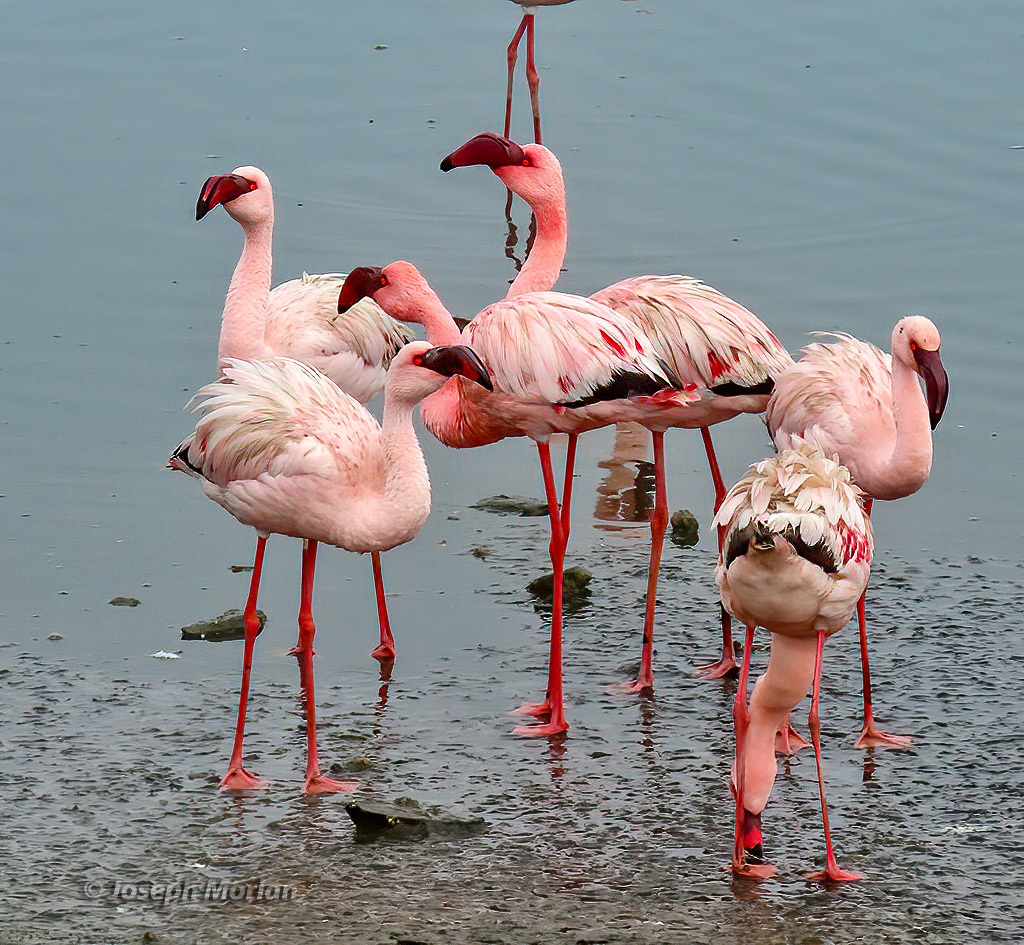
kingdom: Animalia
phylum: Chordata
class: Aves
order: Phoenicopteriformes
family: Phoenicopteridae
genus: Phoeniconaias
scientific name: Phoeniconaias minor
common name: Lesser flamingo
